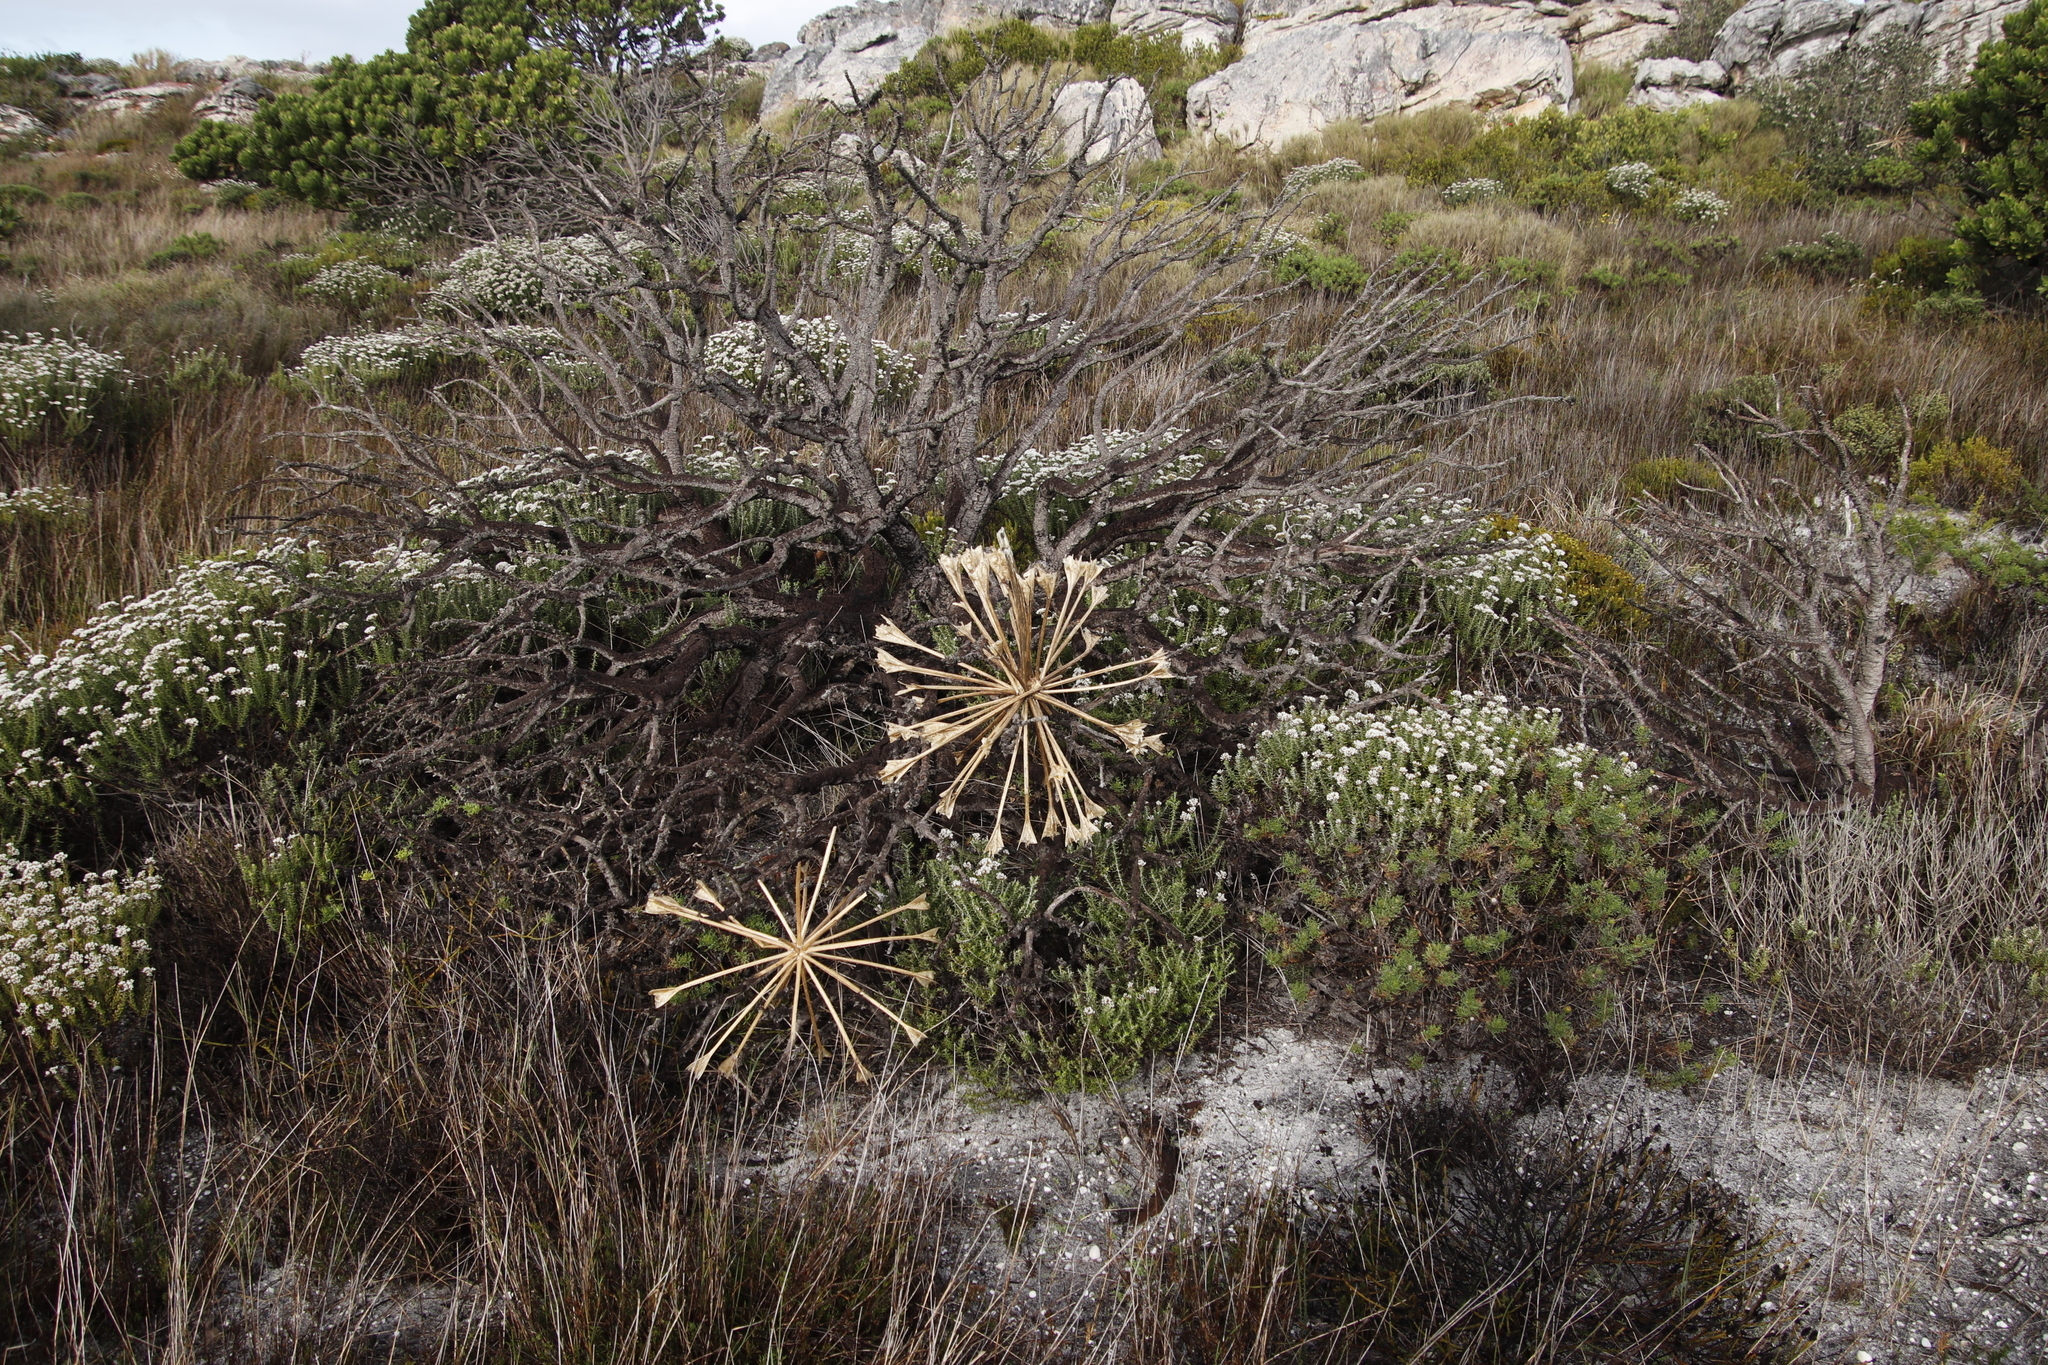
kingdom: Plantae
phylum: Tracheophyta
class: Liliopsida
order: Asparagales
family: Amaryllidaceae
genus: Brunsvigia
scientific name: Brunsvigia orientalis
